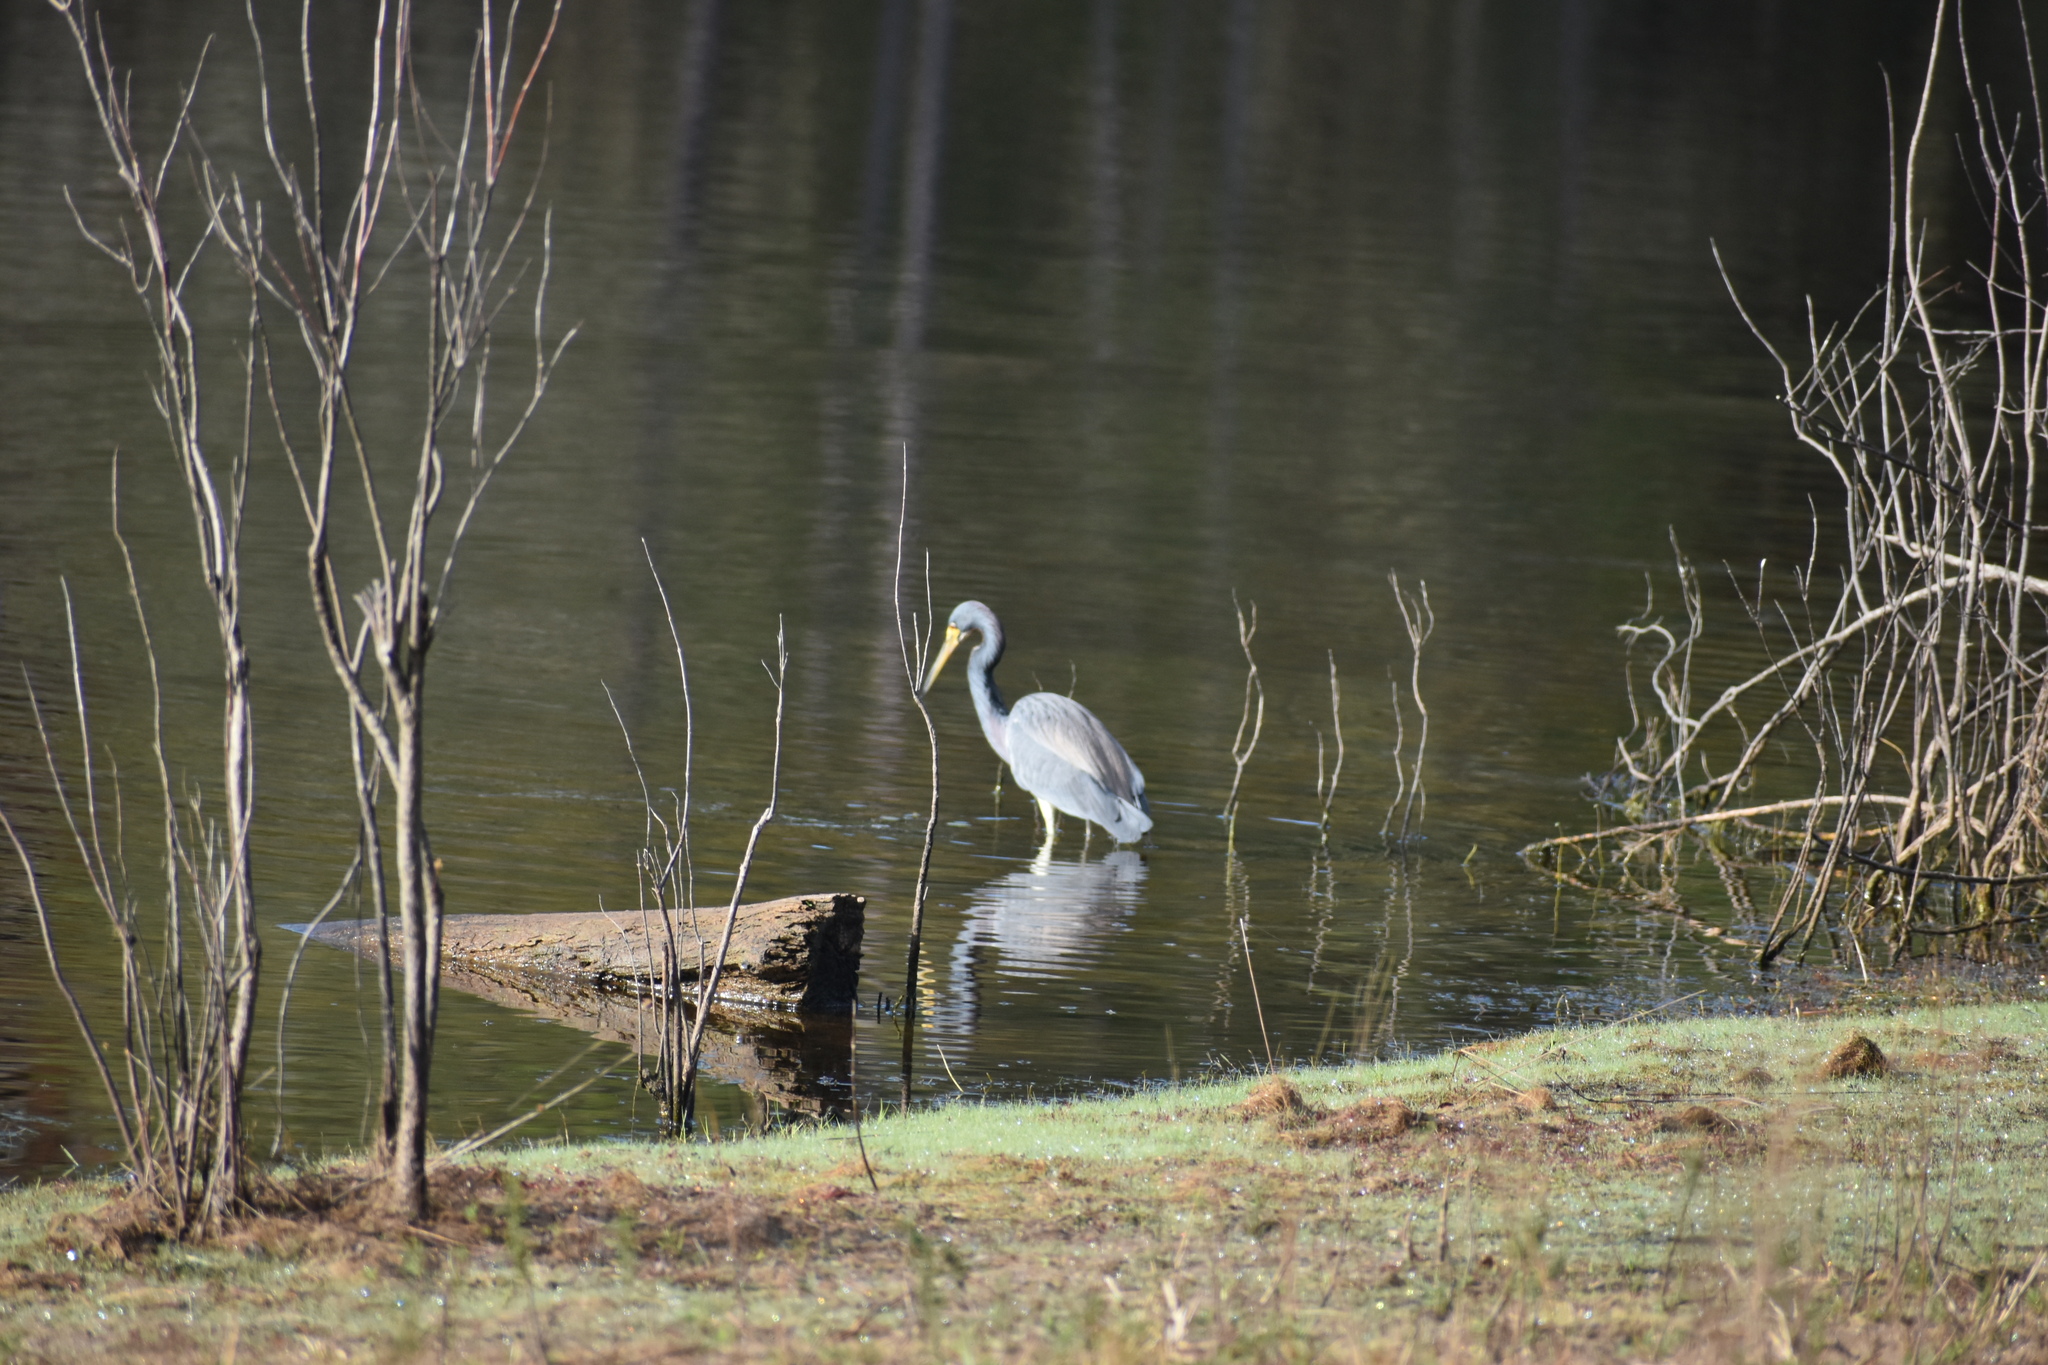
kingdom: Animalia
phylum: Chordata
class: Aves
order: Pelecaniformes
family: Ardeidae
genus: Egretta
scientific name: Egretta tricolor
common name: Tricolored heron
